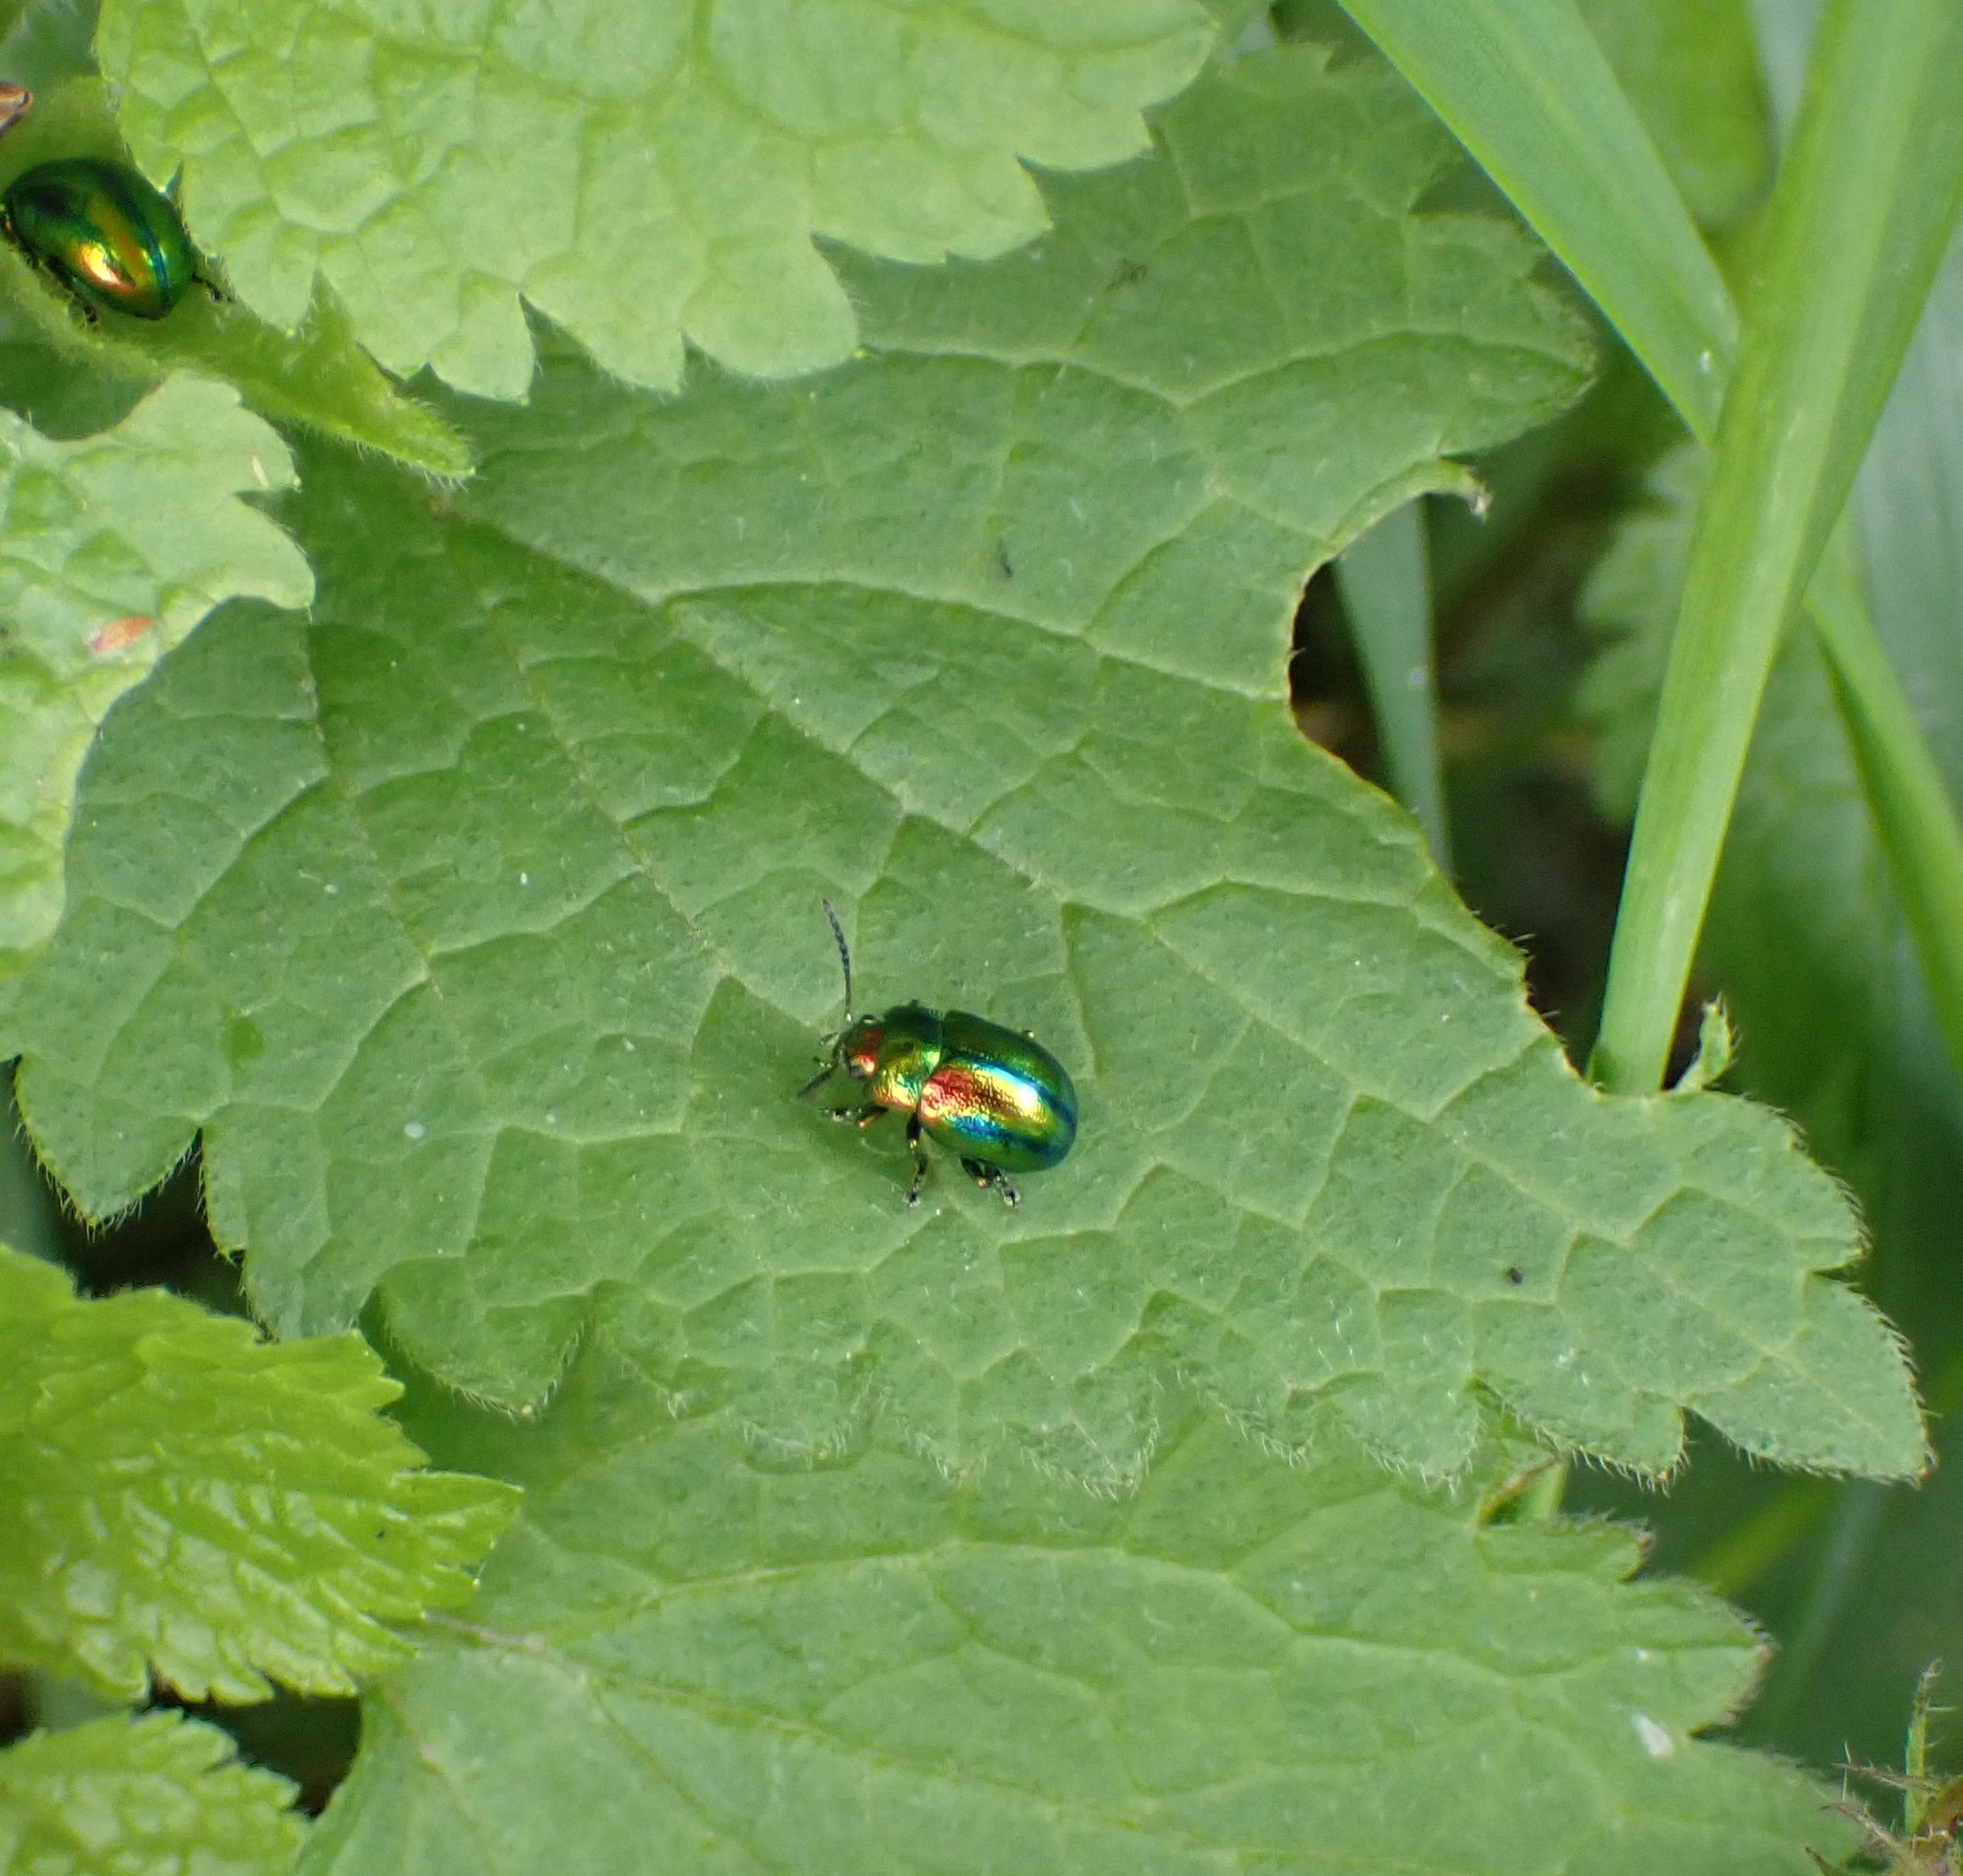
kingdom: Animalia
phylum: Arthropoda
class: Insecta
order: Coleoptera
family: Chrysomelidae
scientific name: Chrysomelidae
